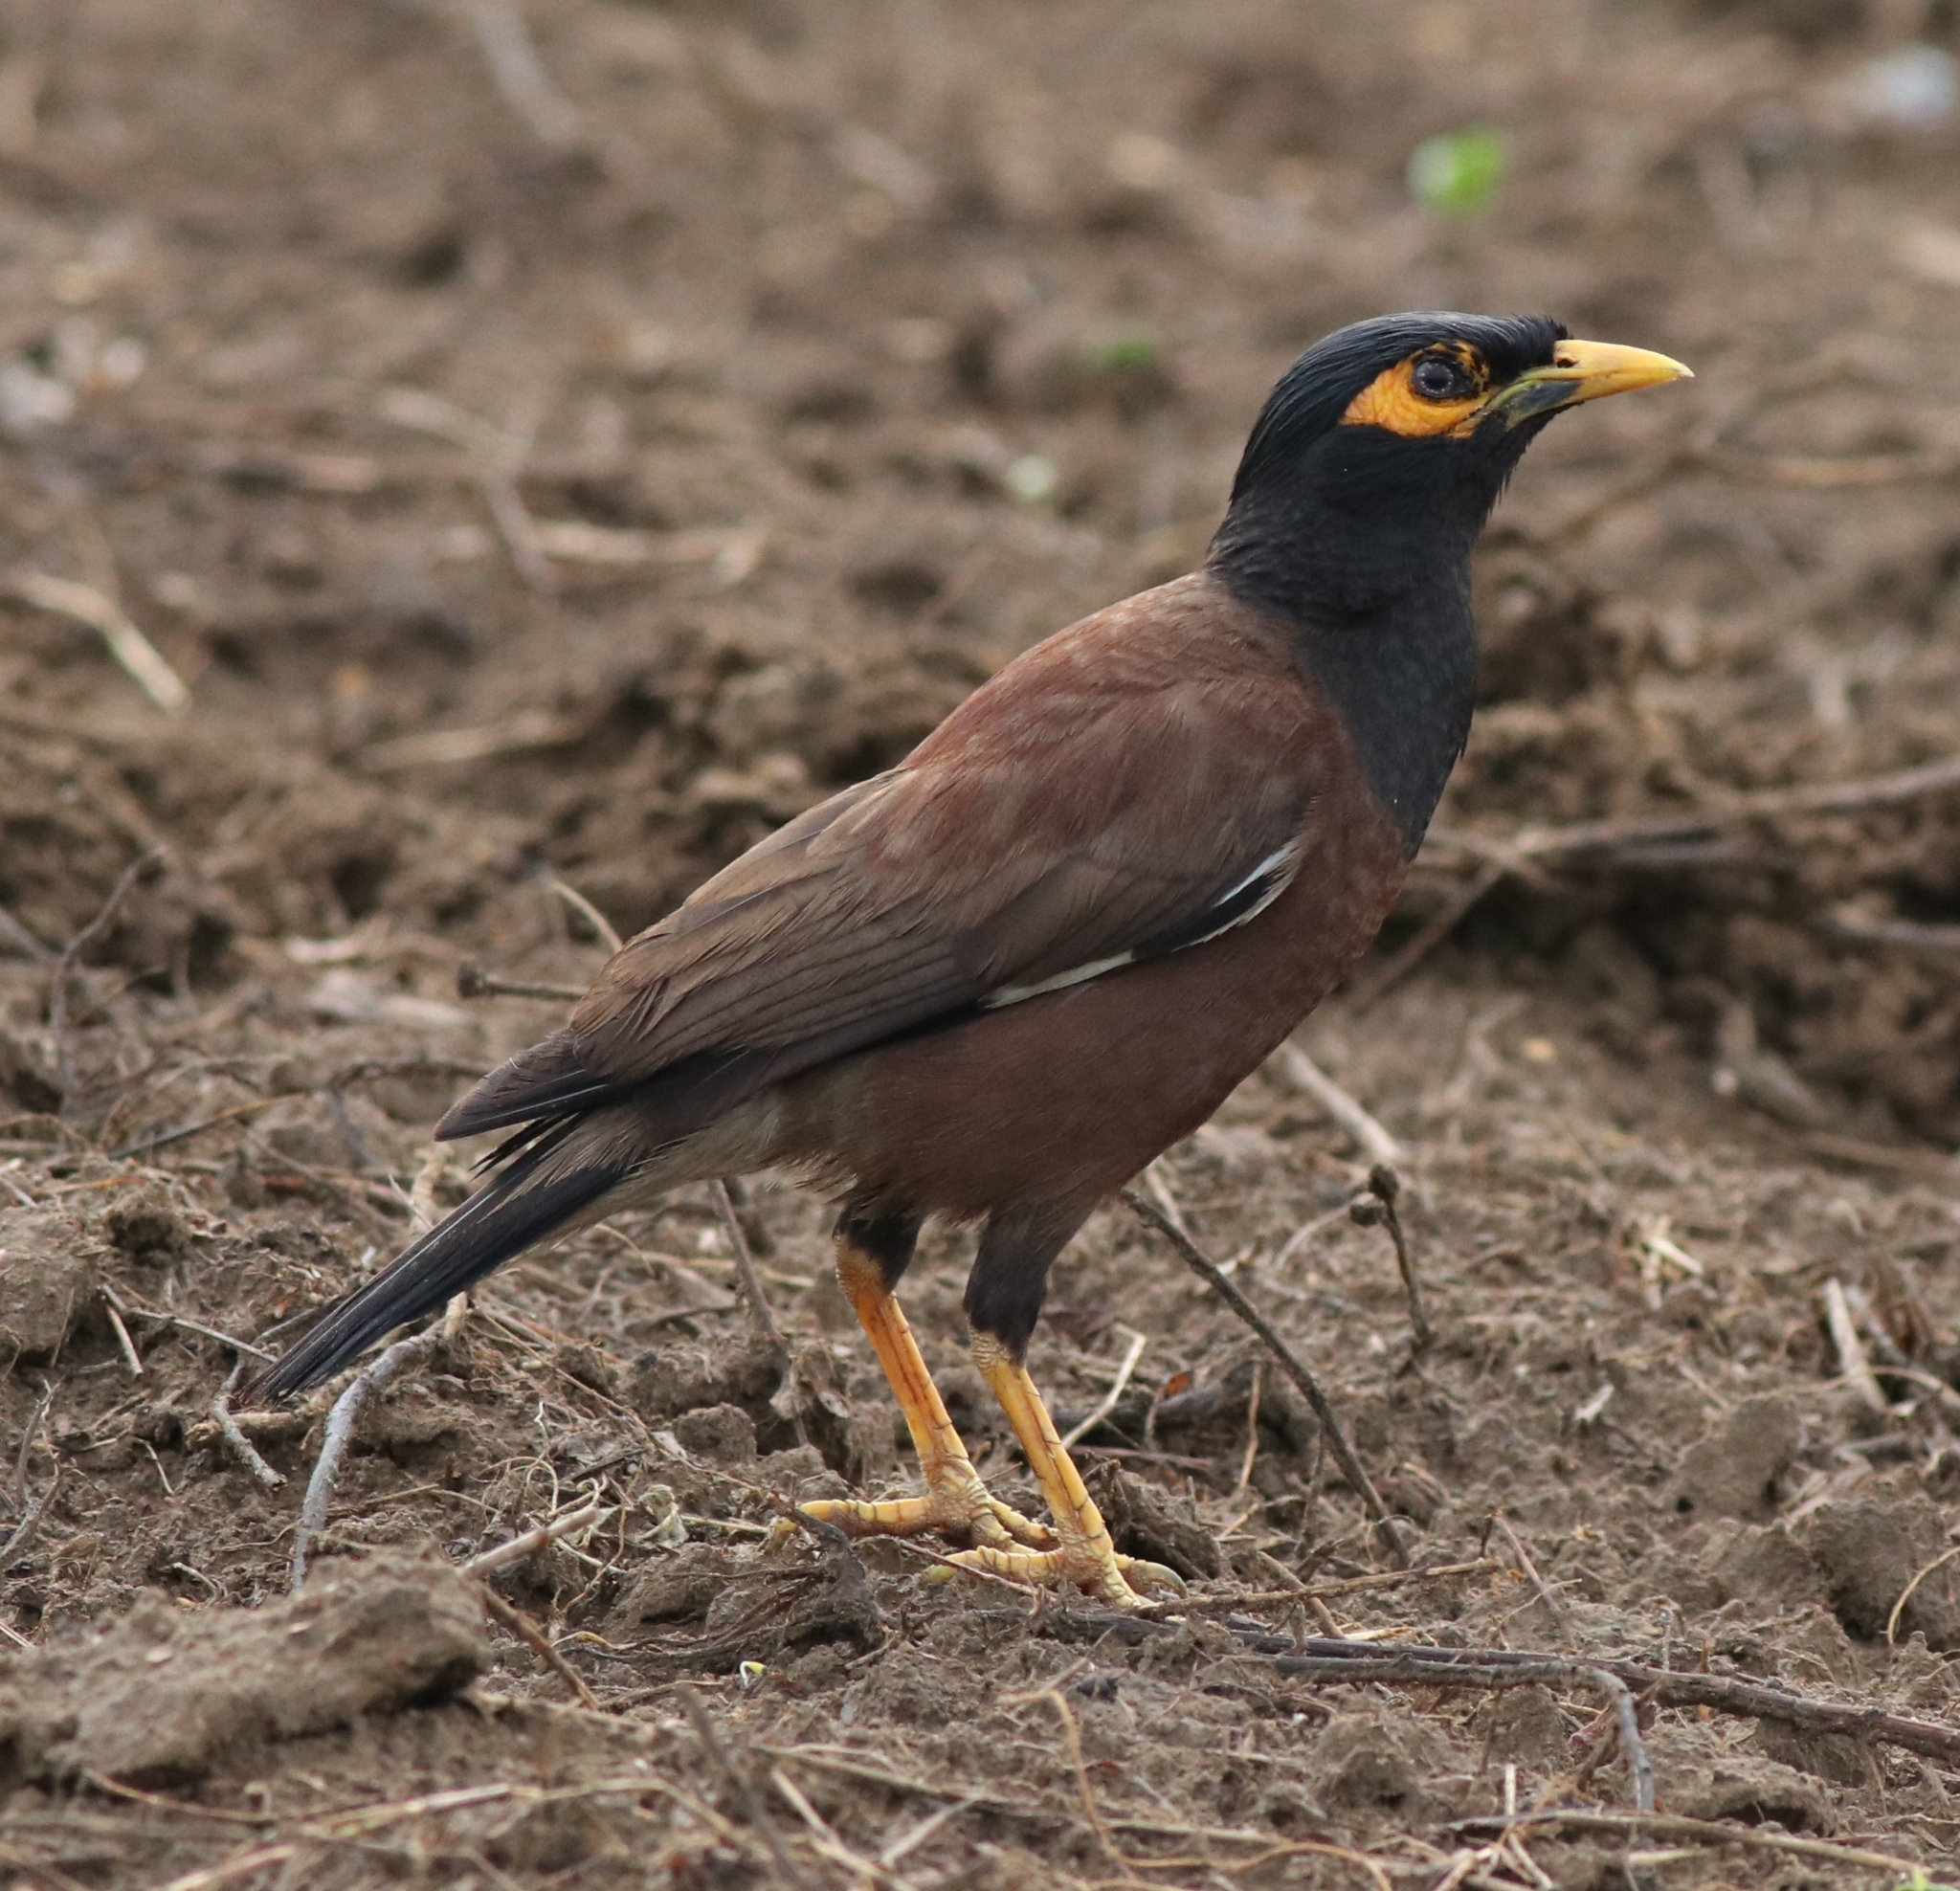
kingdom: Animalia
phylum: Chordata
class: Aves
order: Passeriformes
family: Sturnidae
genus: Acridotheres
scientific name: Acridotheres tristis
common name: Common myna
